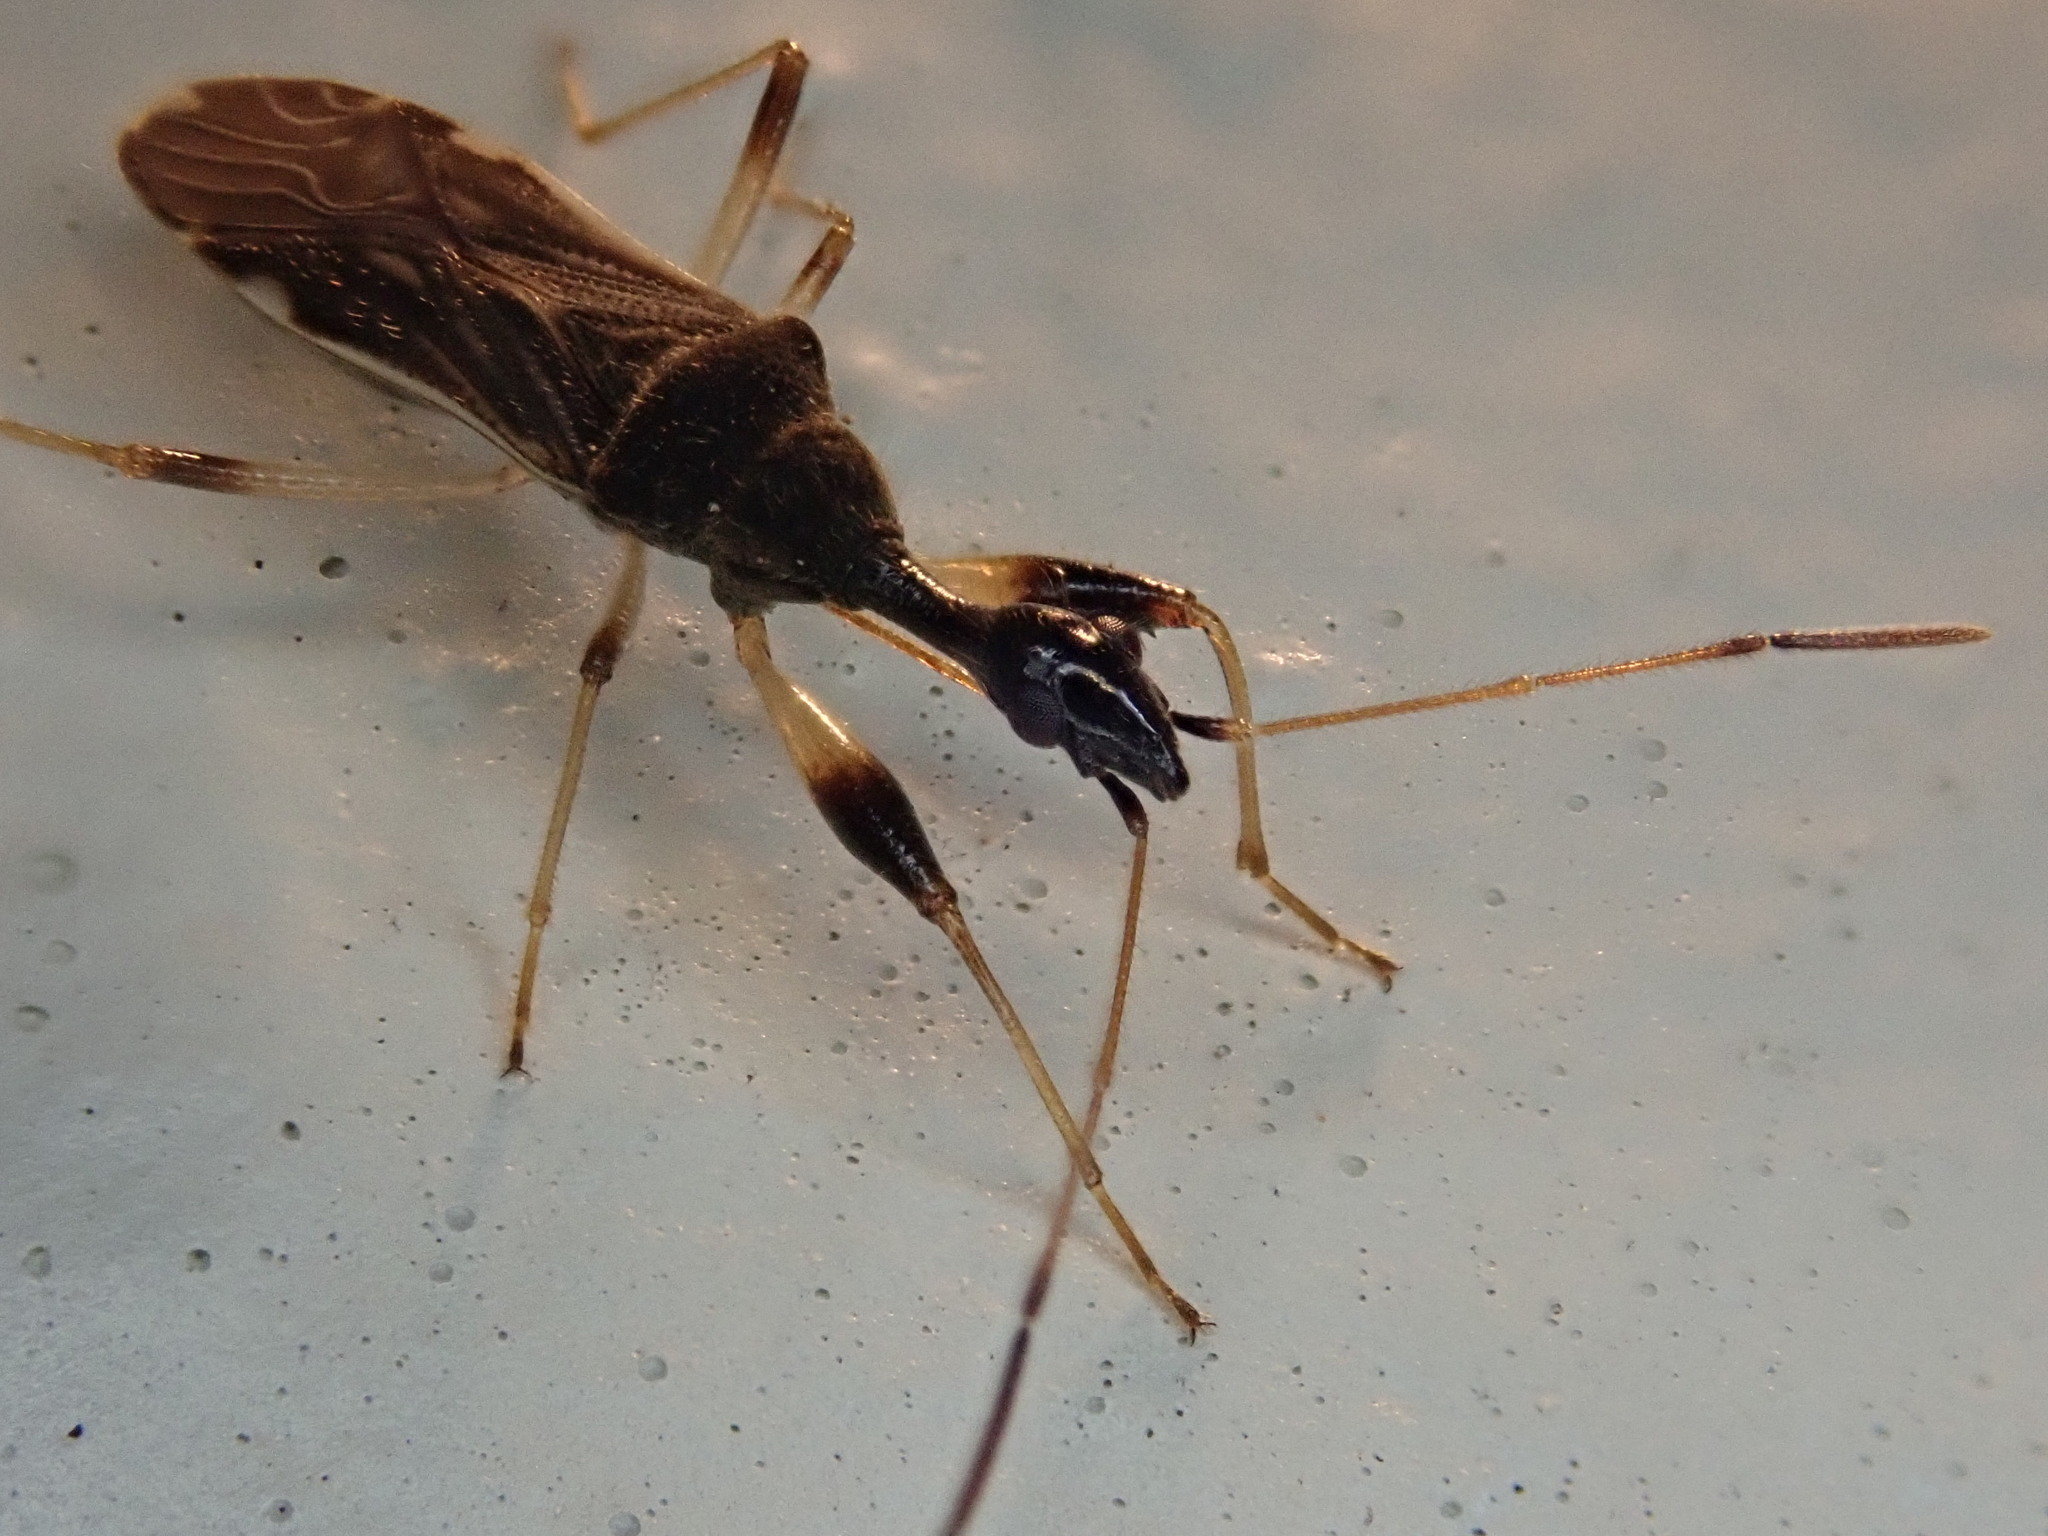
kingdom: Animalia
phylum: Arthropoda
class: Insecta
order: Hemiptera
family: Rhyparochromidae
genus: Myodocha
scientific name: Myodocha serripes
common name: Long-necked seed bug
